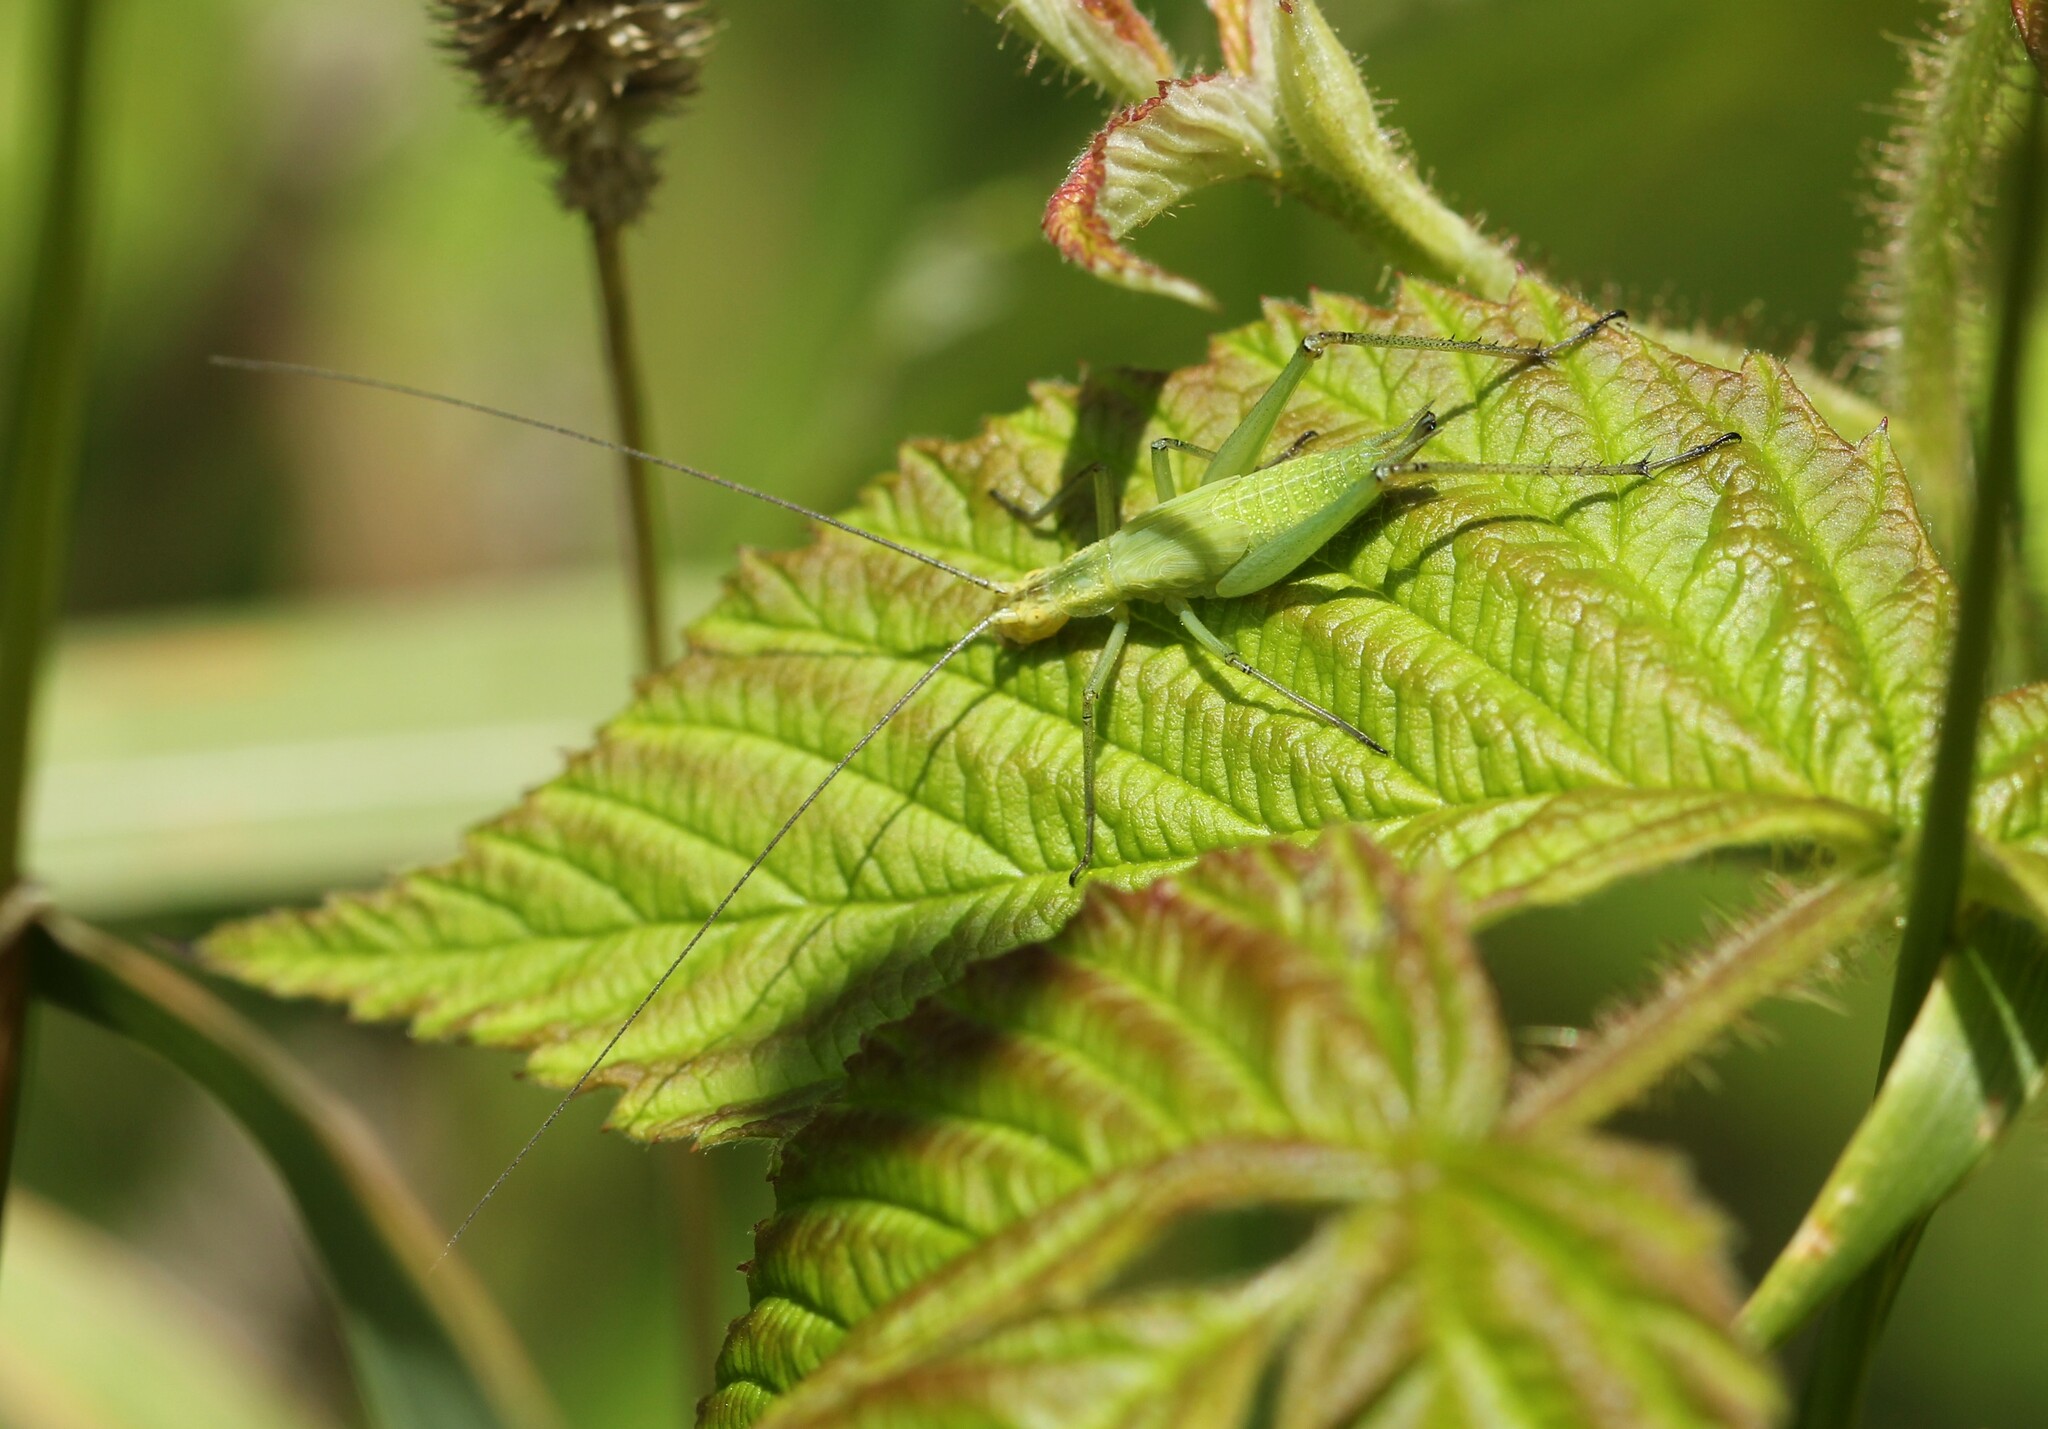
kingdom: Animalia
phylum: Arthropoda
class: Insecta
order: Orthoptera
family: Gryllidae
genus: Oecanthus
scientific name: Oecanthus nigricornis
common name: Black-horned tree cricket
